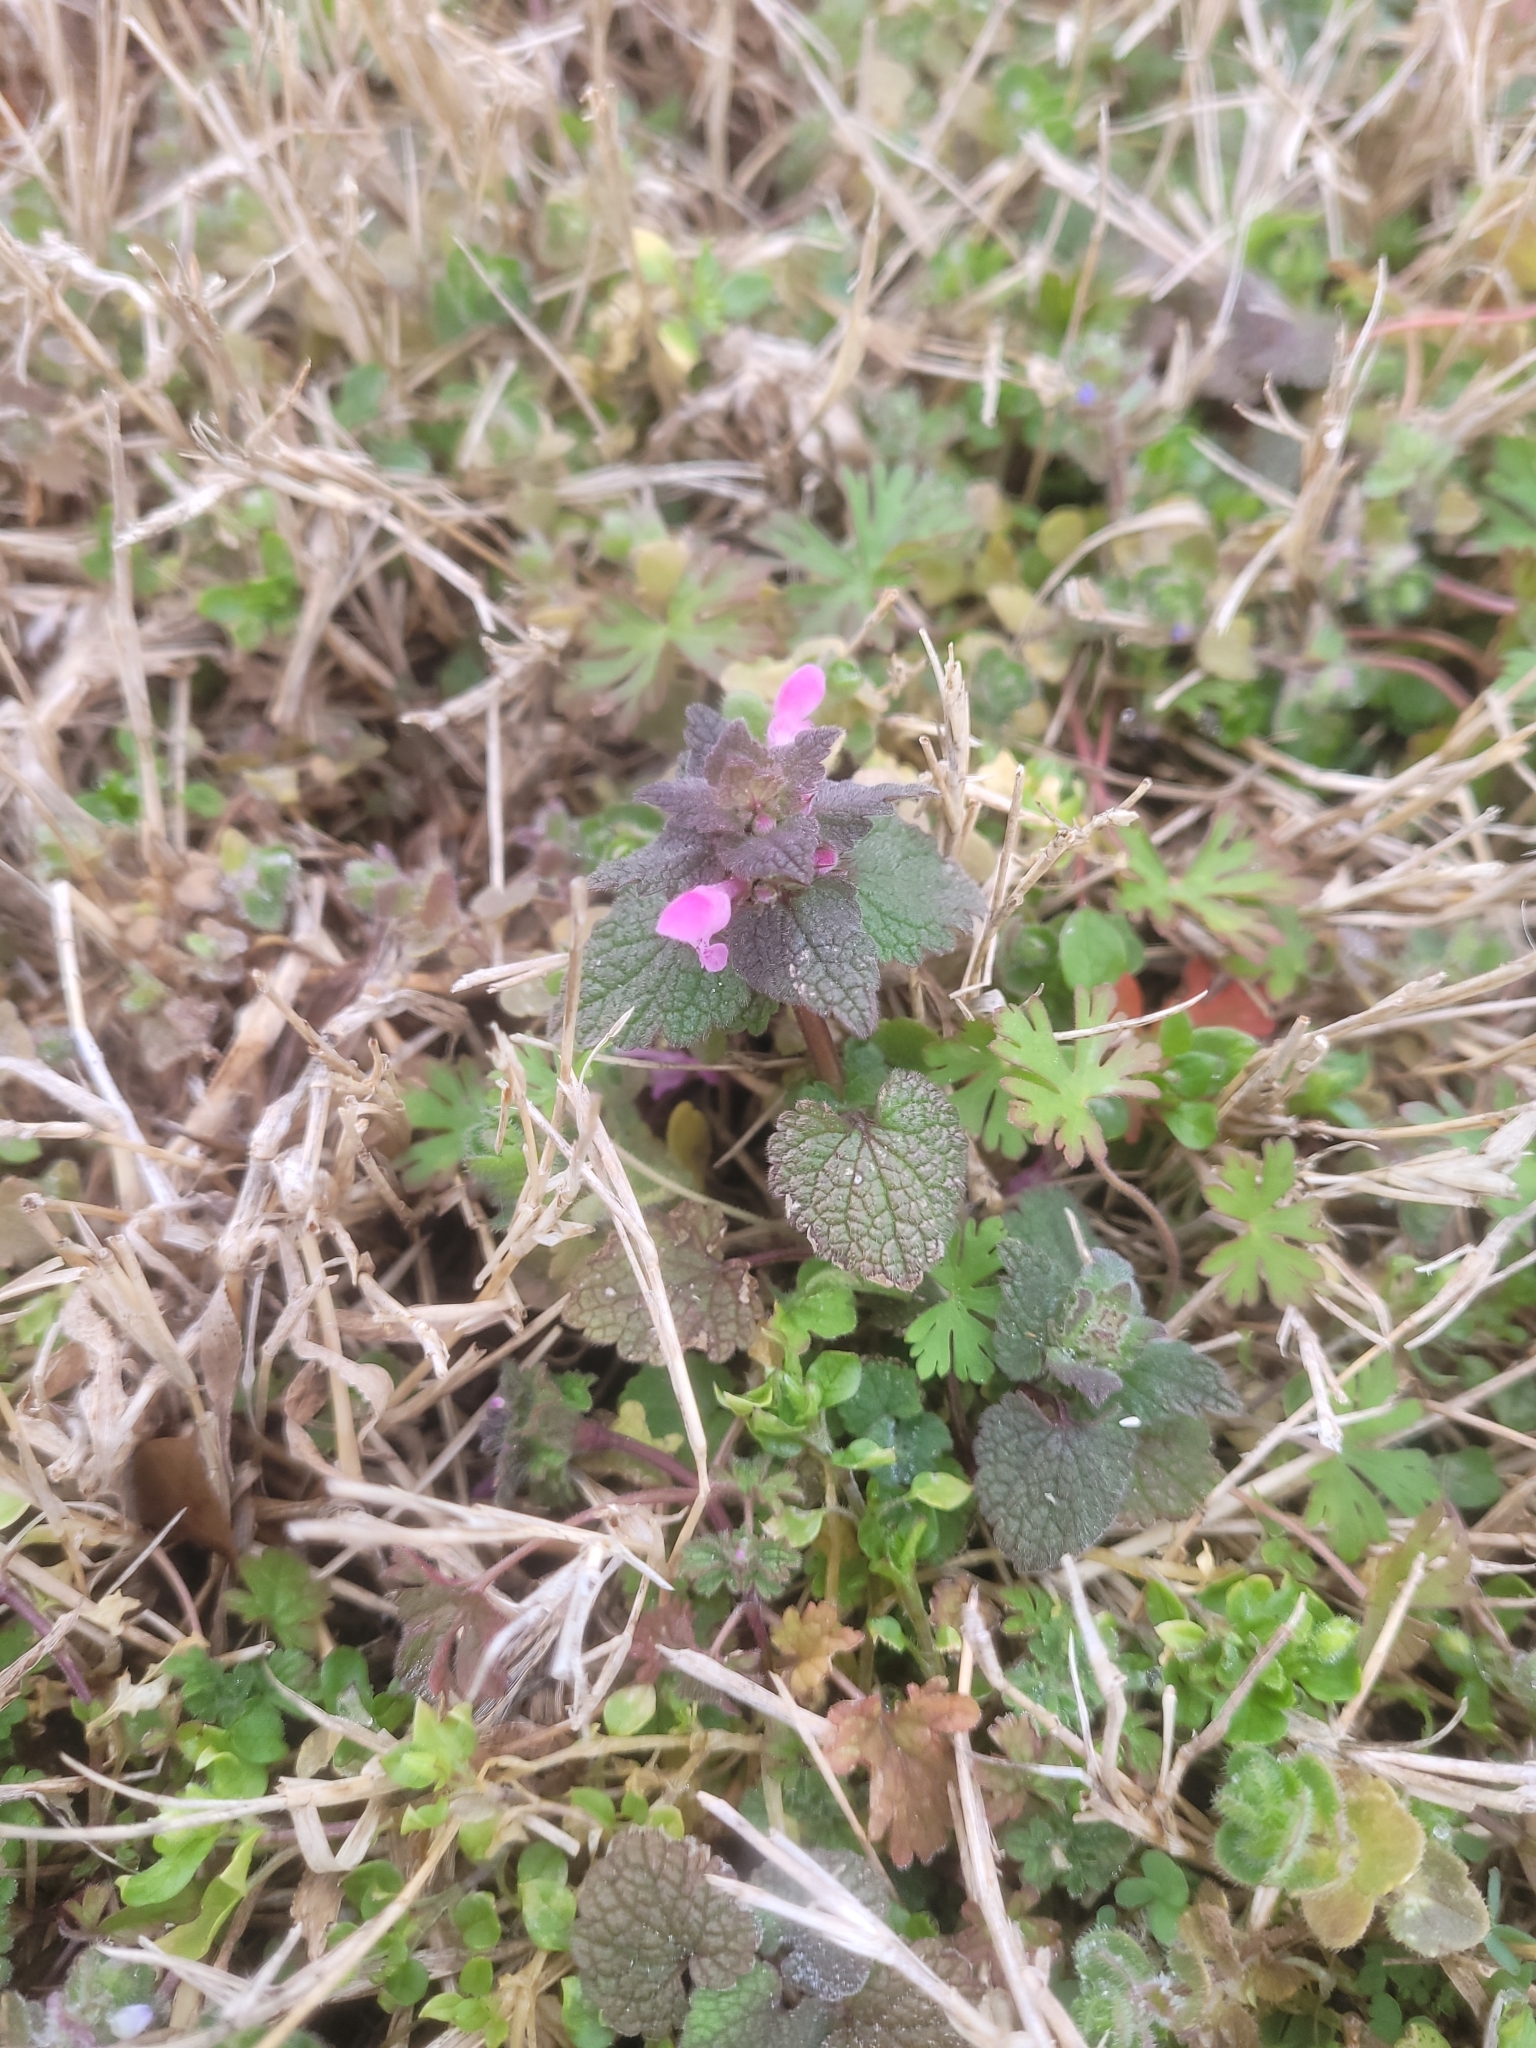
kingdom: Plantae
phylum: Tracheophyta
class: Magnoliopsida
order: Lamiales
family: Lamiaceae
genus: Lamium
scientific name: Lamium purpureum
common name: Red dead-nettle
